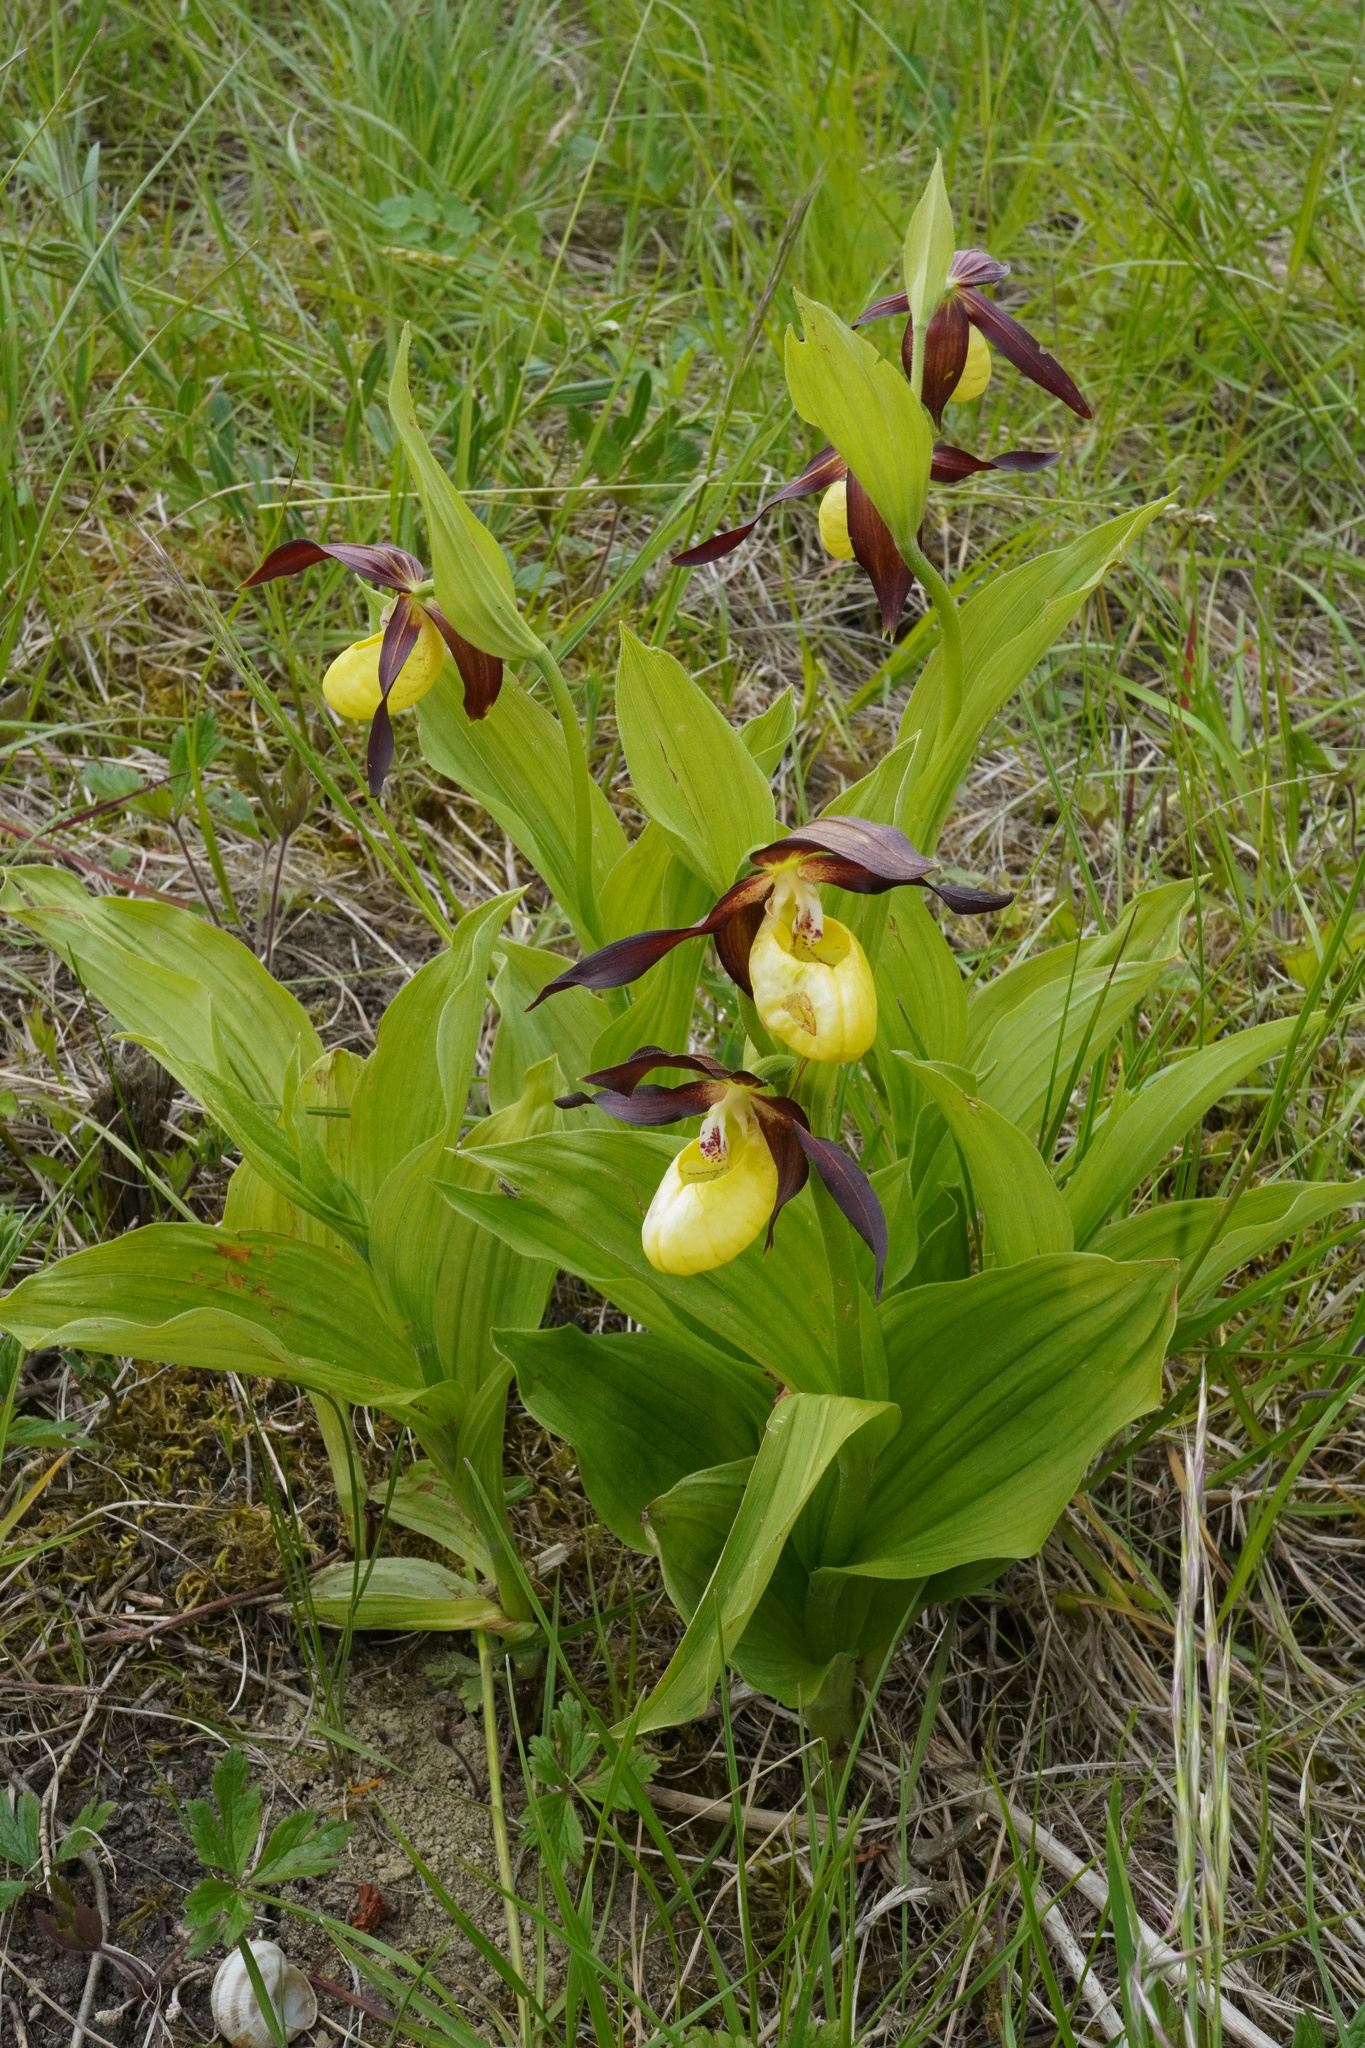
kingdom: Plantae
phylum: Tracheophyta
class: Liliopsida
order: Asparagales
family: Orchidaceae
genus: Cypripedium
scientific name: Cypripedium calceolus
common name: Lady's-slipper
